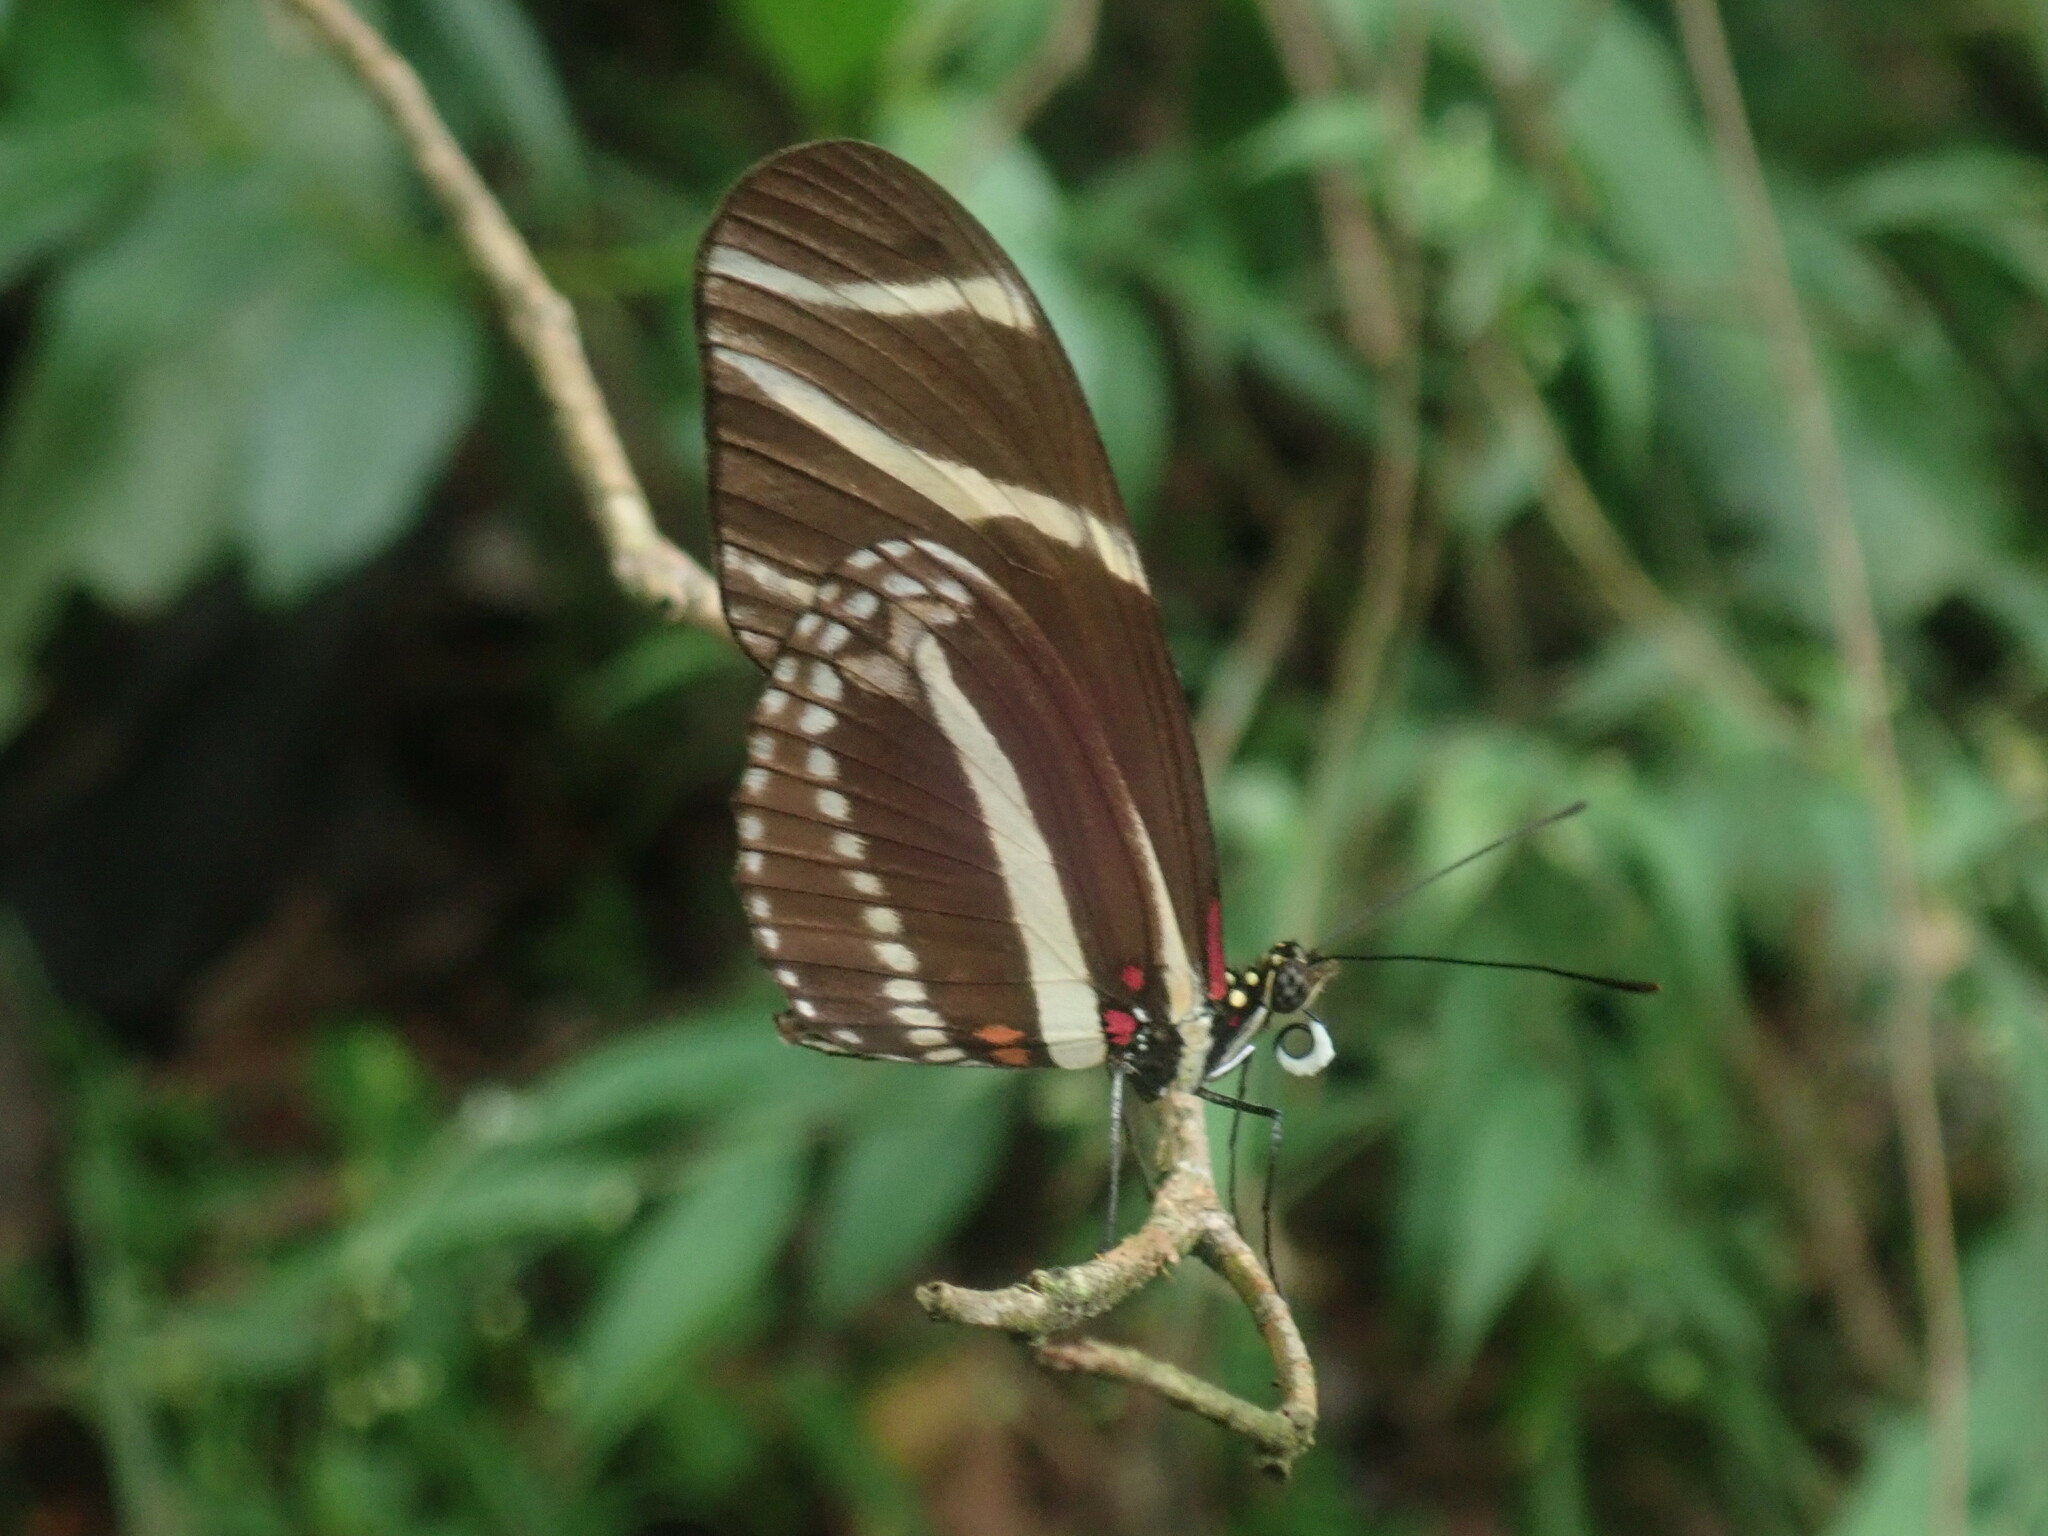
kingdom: Animalia
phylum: Arthropoda
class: Insecta
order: Lepidoptera
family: Nymphalidae
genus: Heliconius
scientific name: Heliconius charithonia
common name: Zebra long wing
